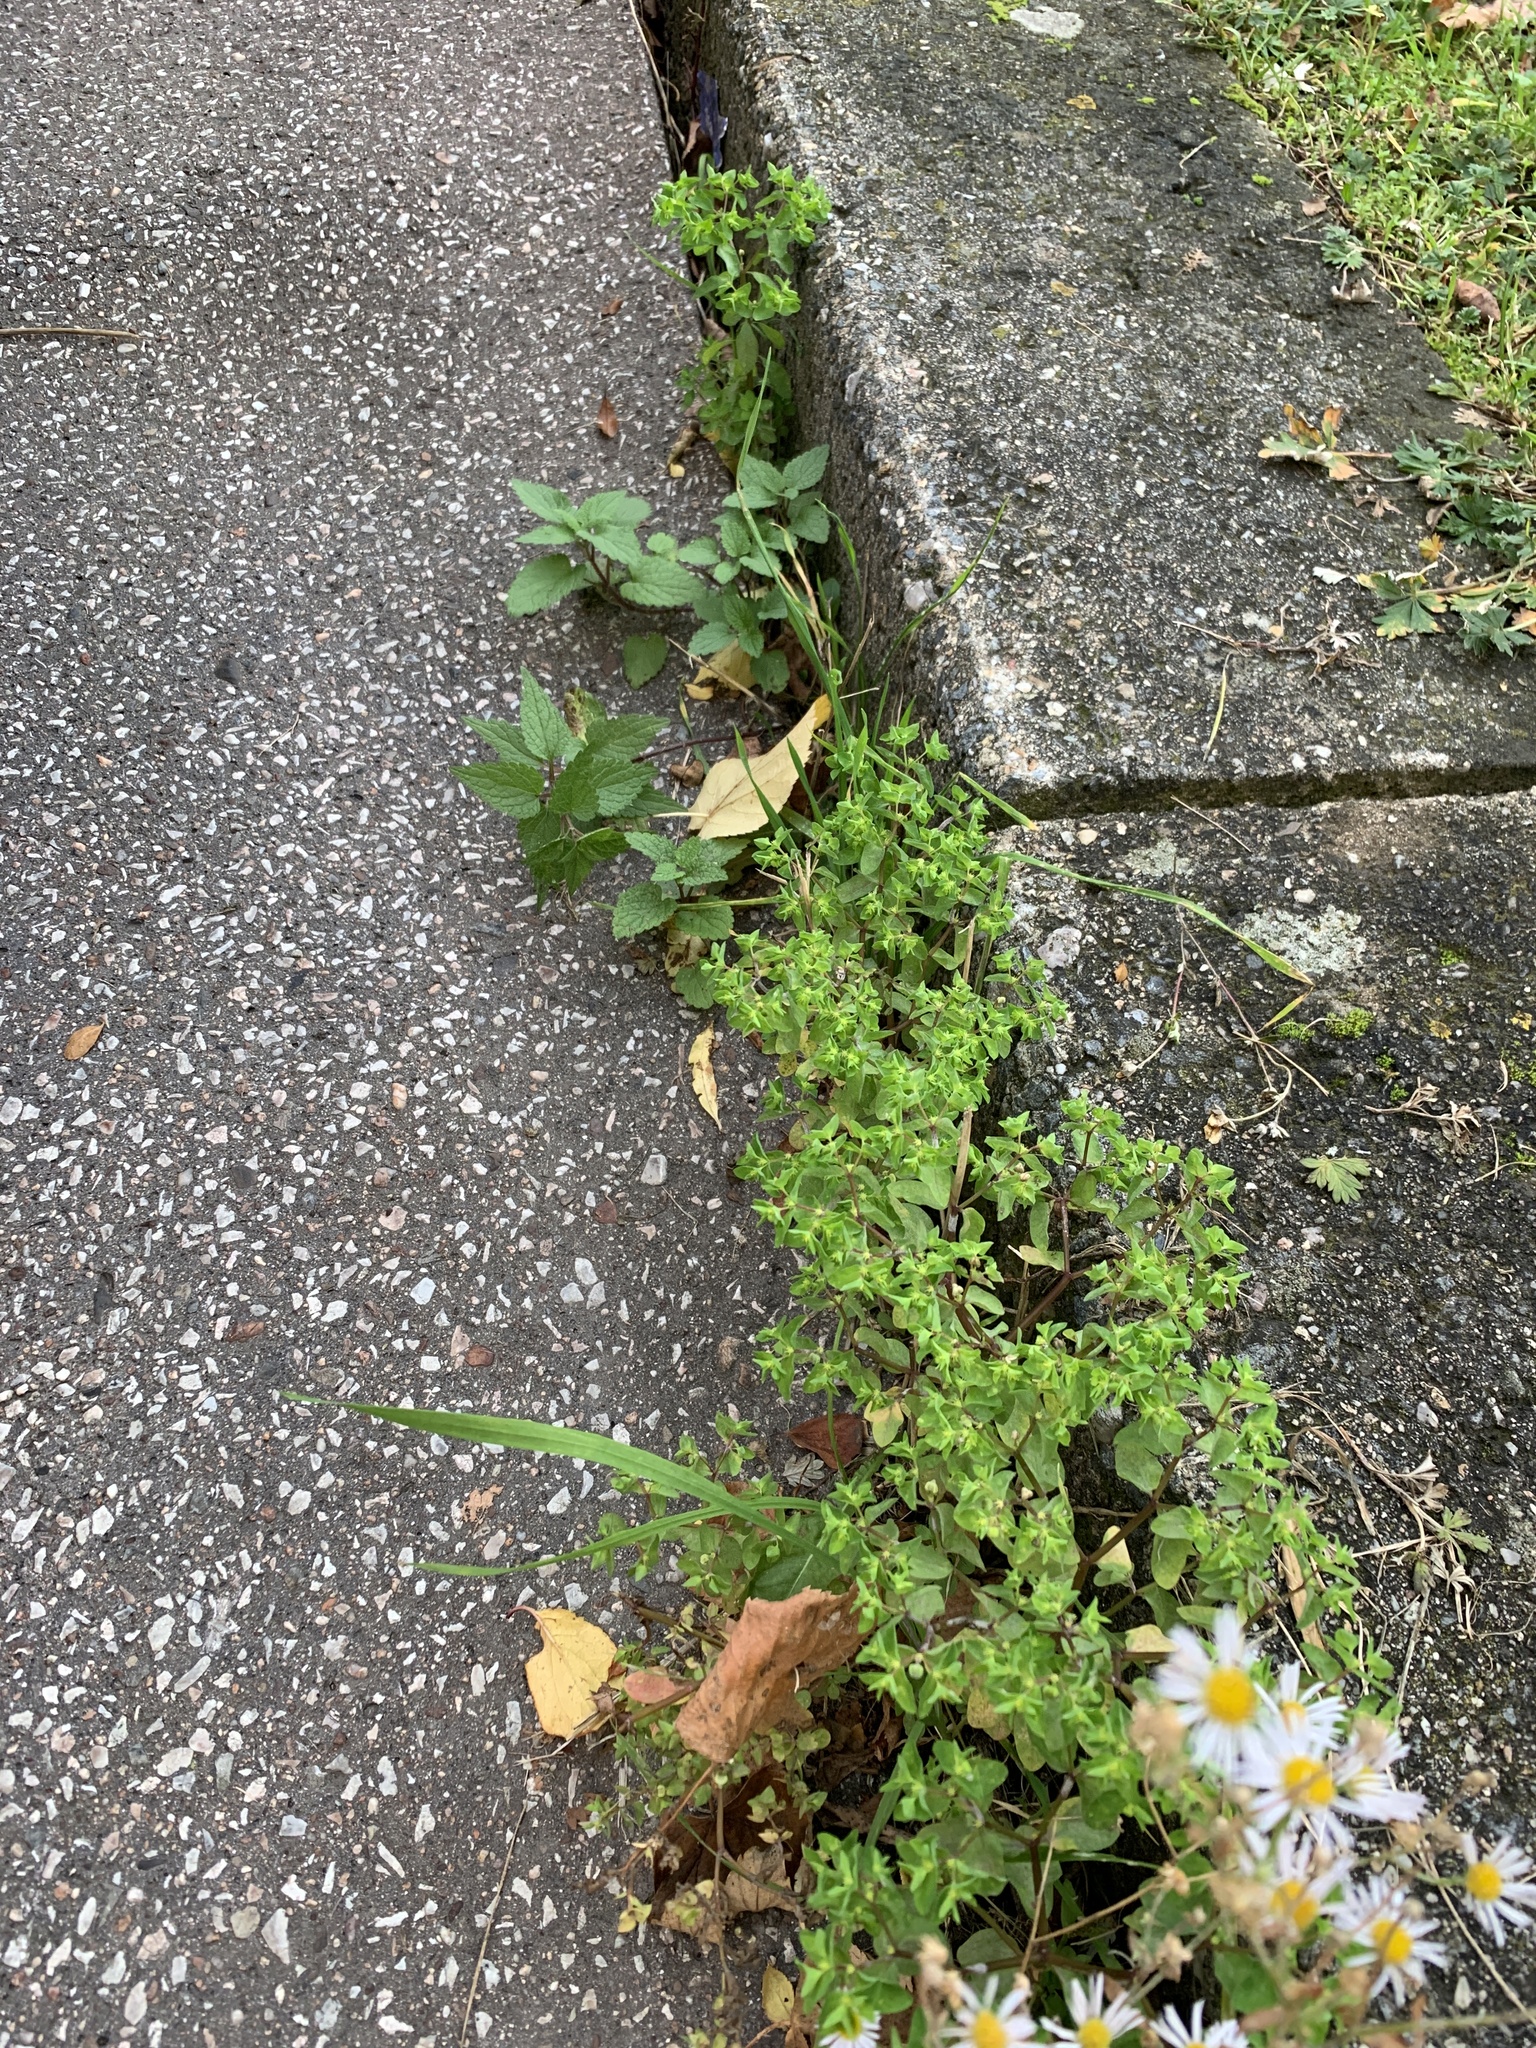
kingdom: Plantae
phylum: Tracheophyta
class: Magnoliopsida
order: Malpighiales
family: Euphorbiaceae
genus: Euphorbia
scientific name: Euphorbia peplus
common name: Petty spurge
